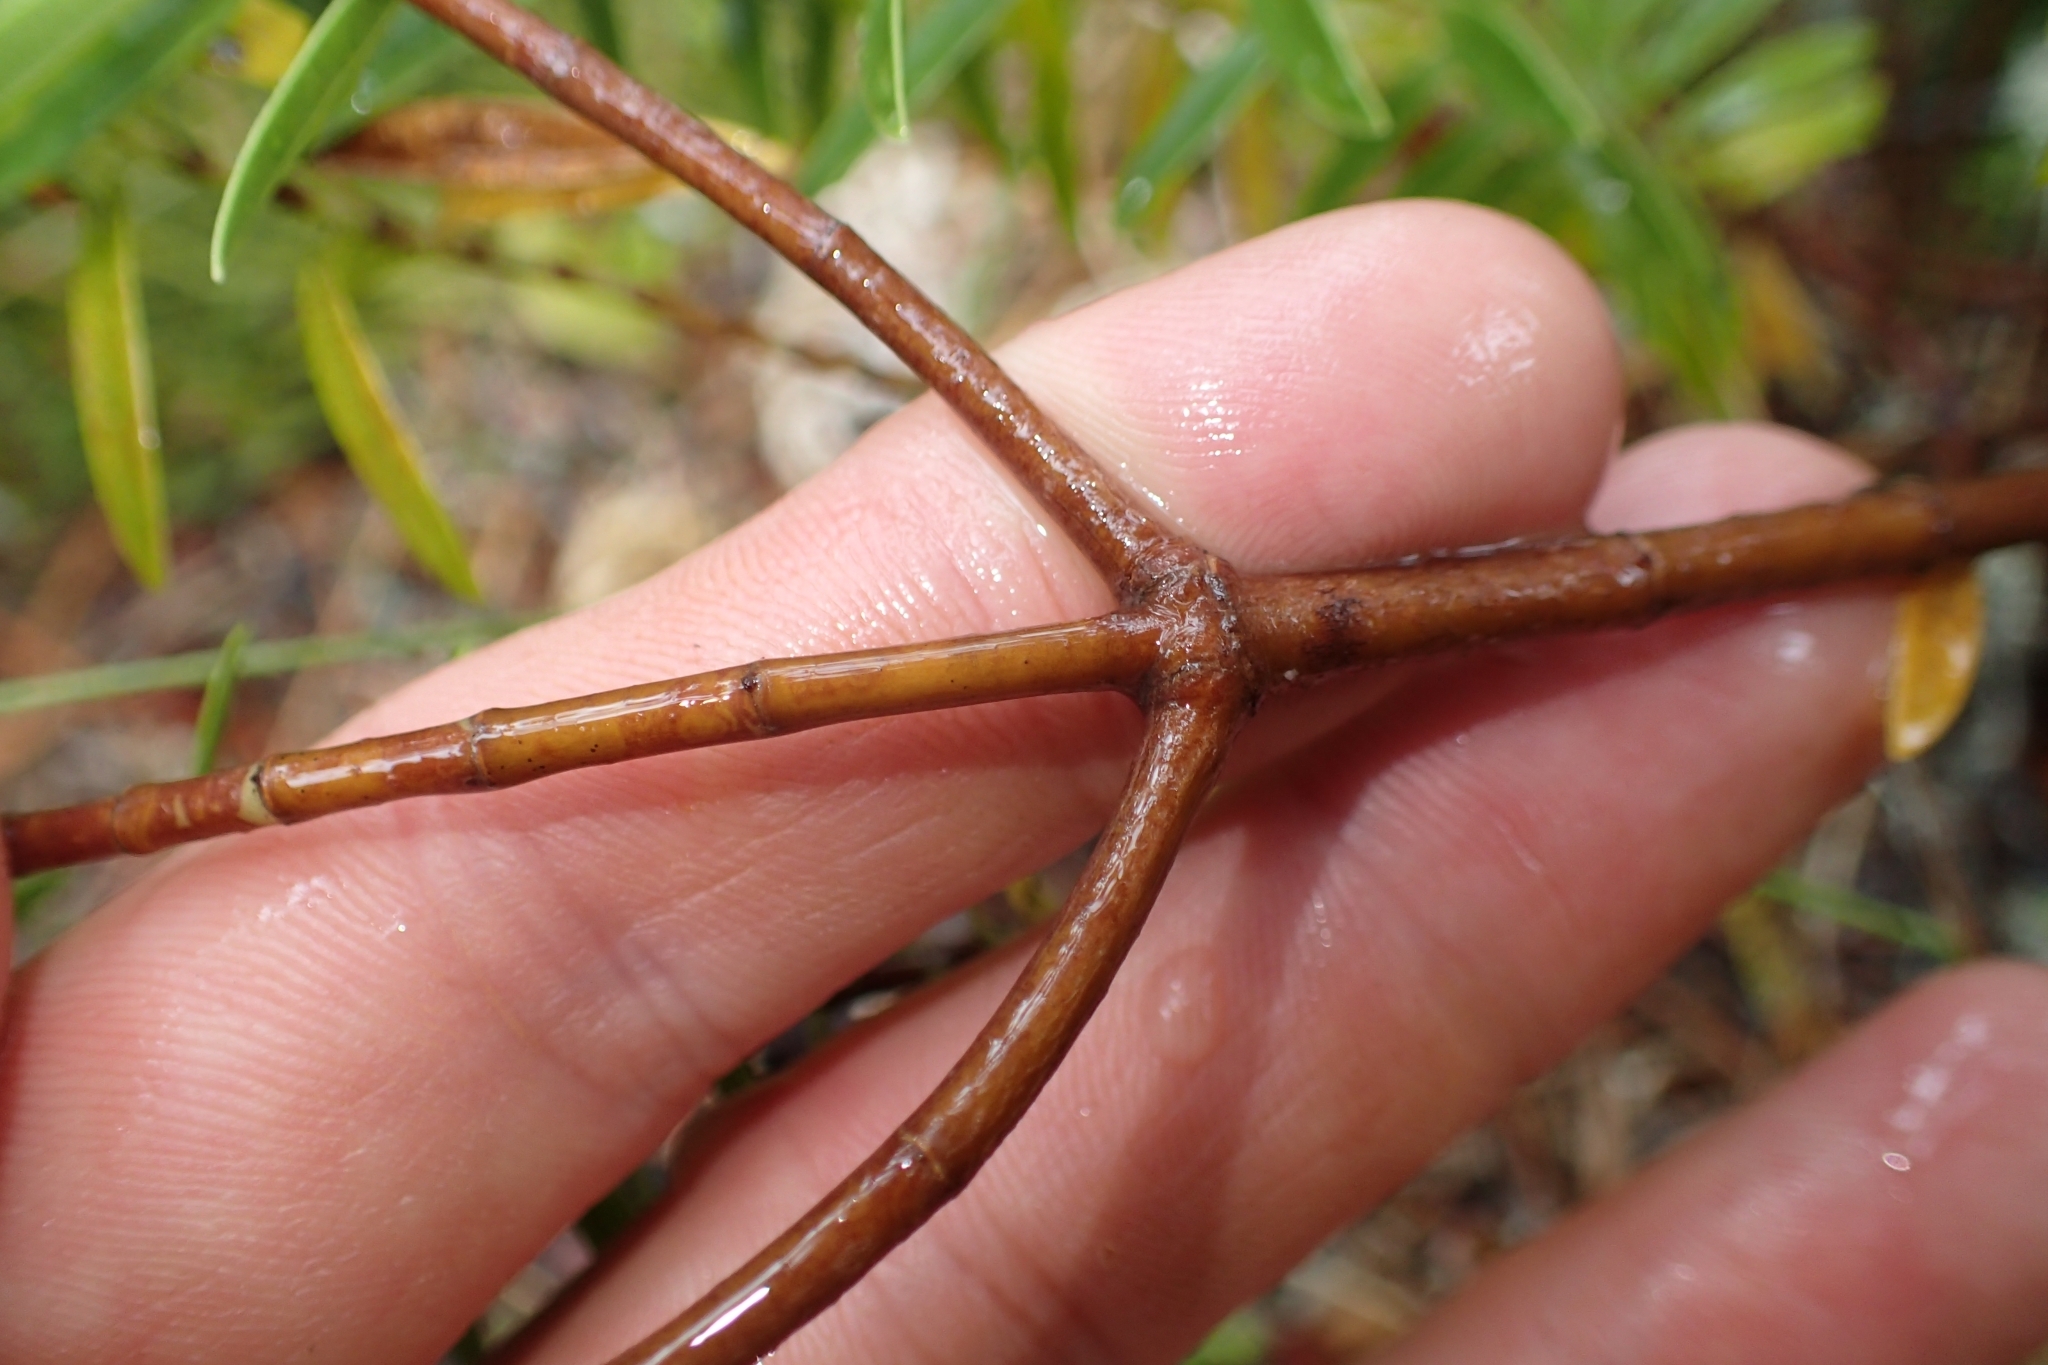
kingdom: Plantae
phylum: Tracheophyta
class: Magnoliopsida
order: Lamiales
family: Plantaginaceae
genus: Veronica
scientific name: Veronica subalpina
